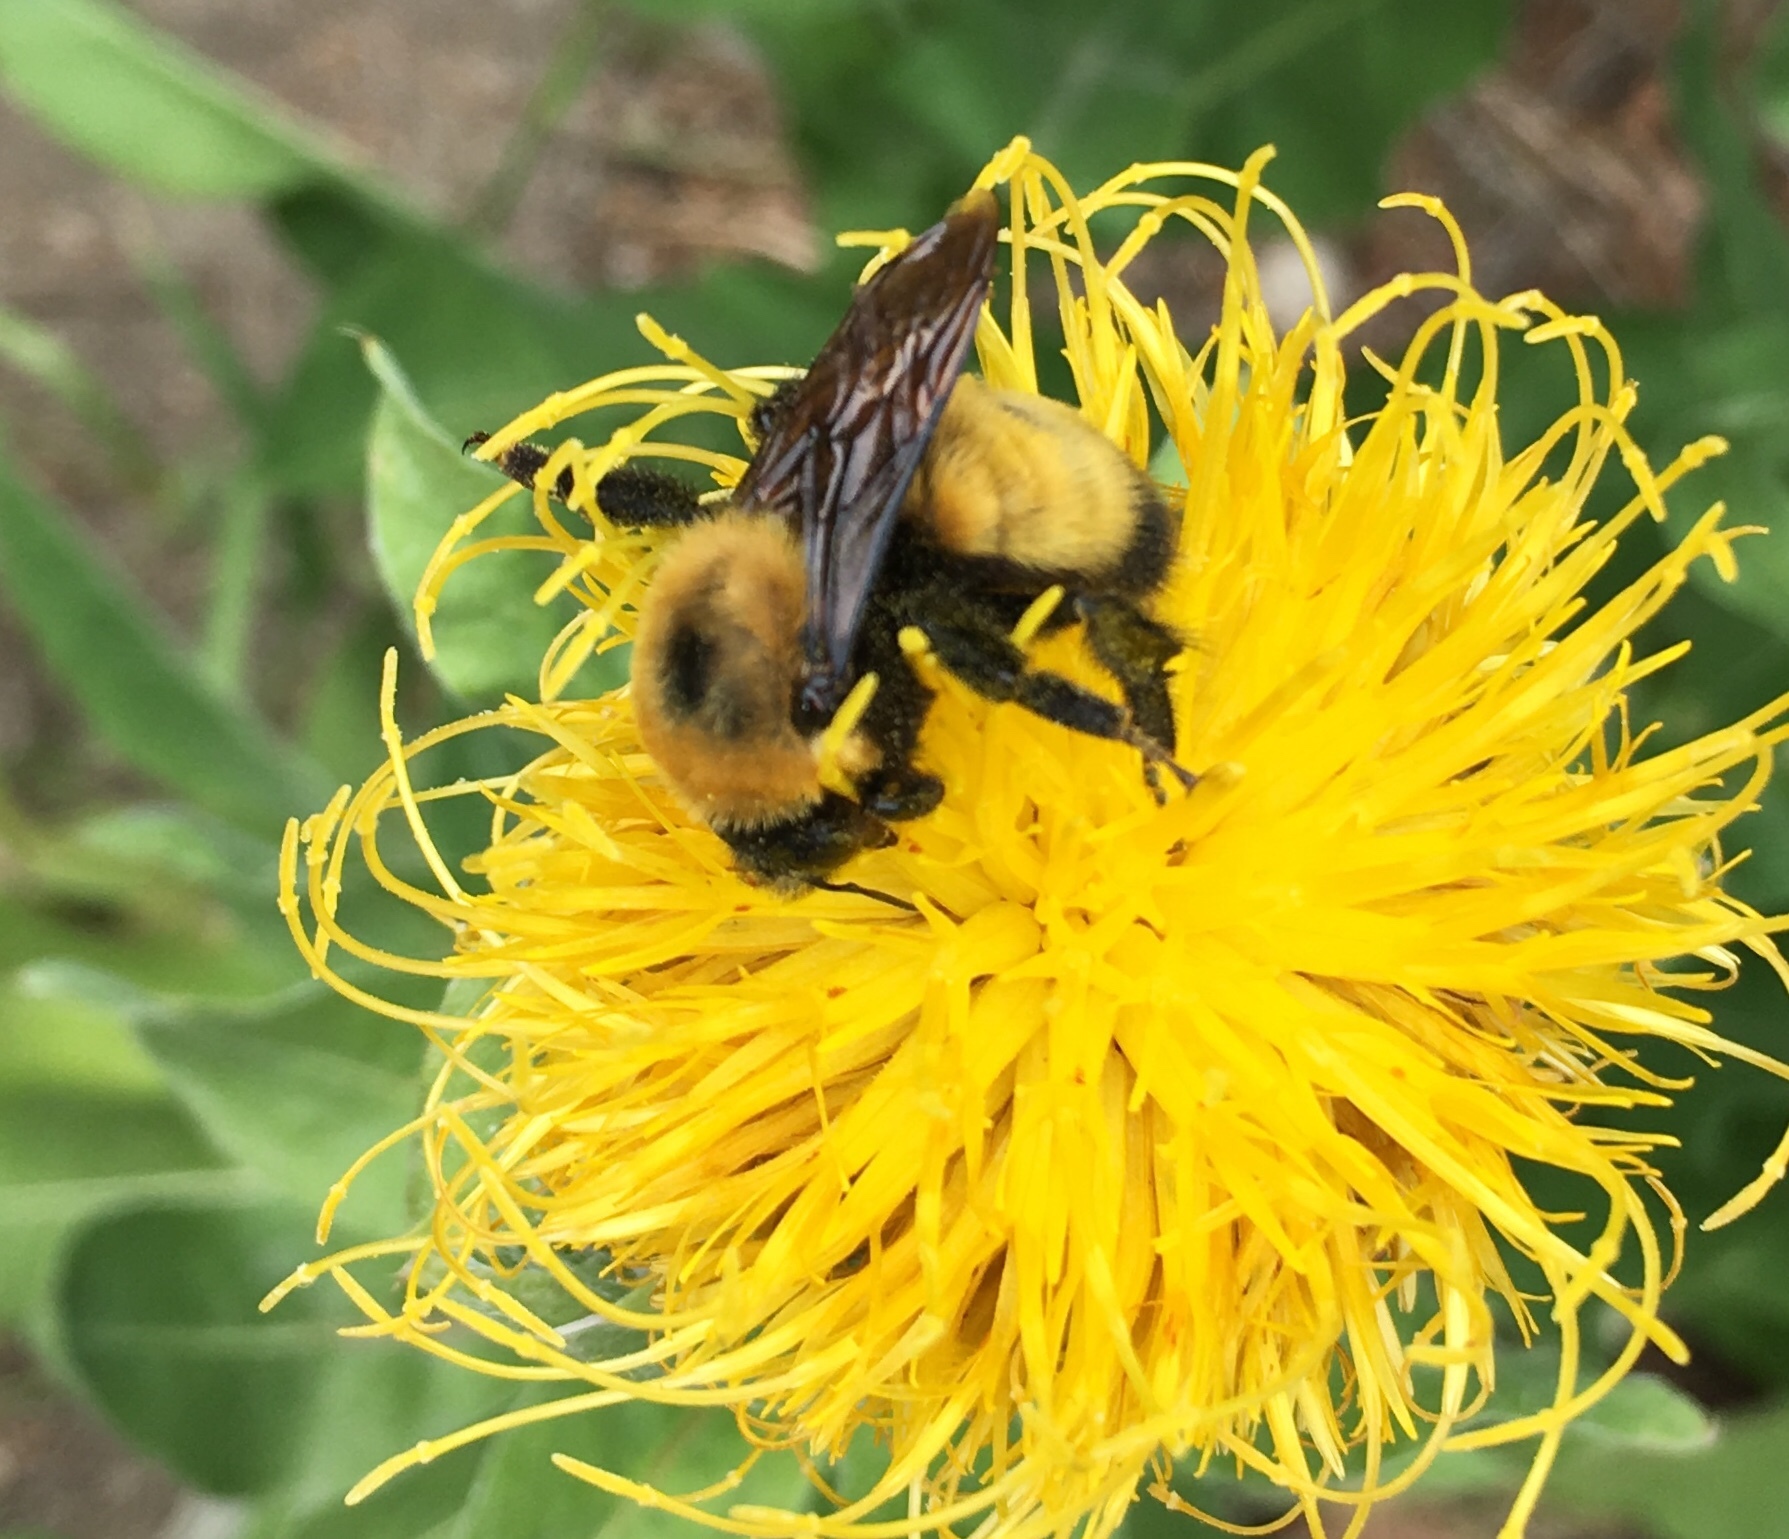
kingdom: Animalia
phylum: Arthropoda
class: Insecta
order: Hymenoptera
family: Apidae
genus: Bombus
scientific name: Bombus nevadensis
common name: Nevada bumble bee
